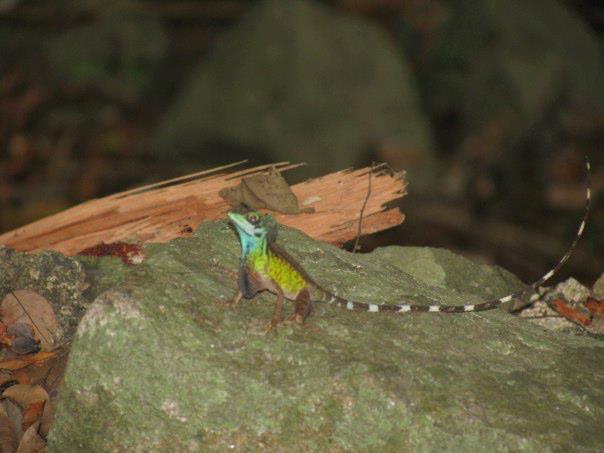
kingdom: Animalia
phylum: Chordata
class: Squamata
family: Agamidae
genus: Otocryptis
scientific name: Otocryptis wiegmanni
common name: Wiegmann's agama
